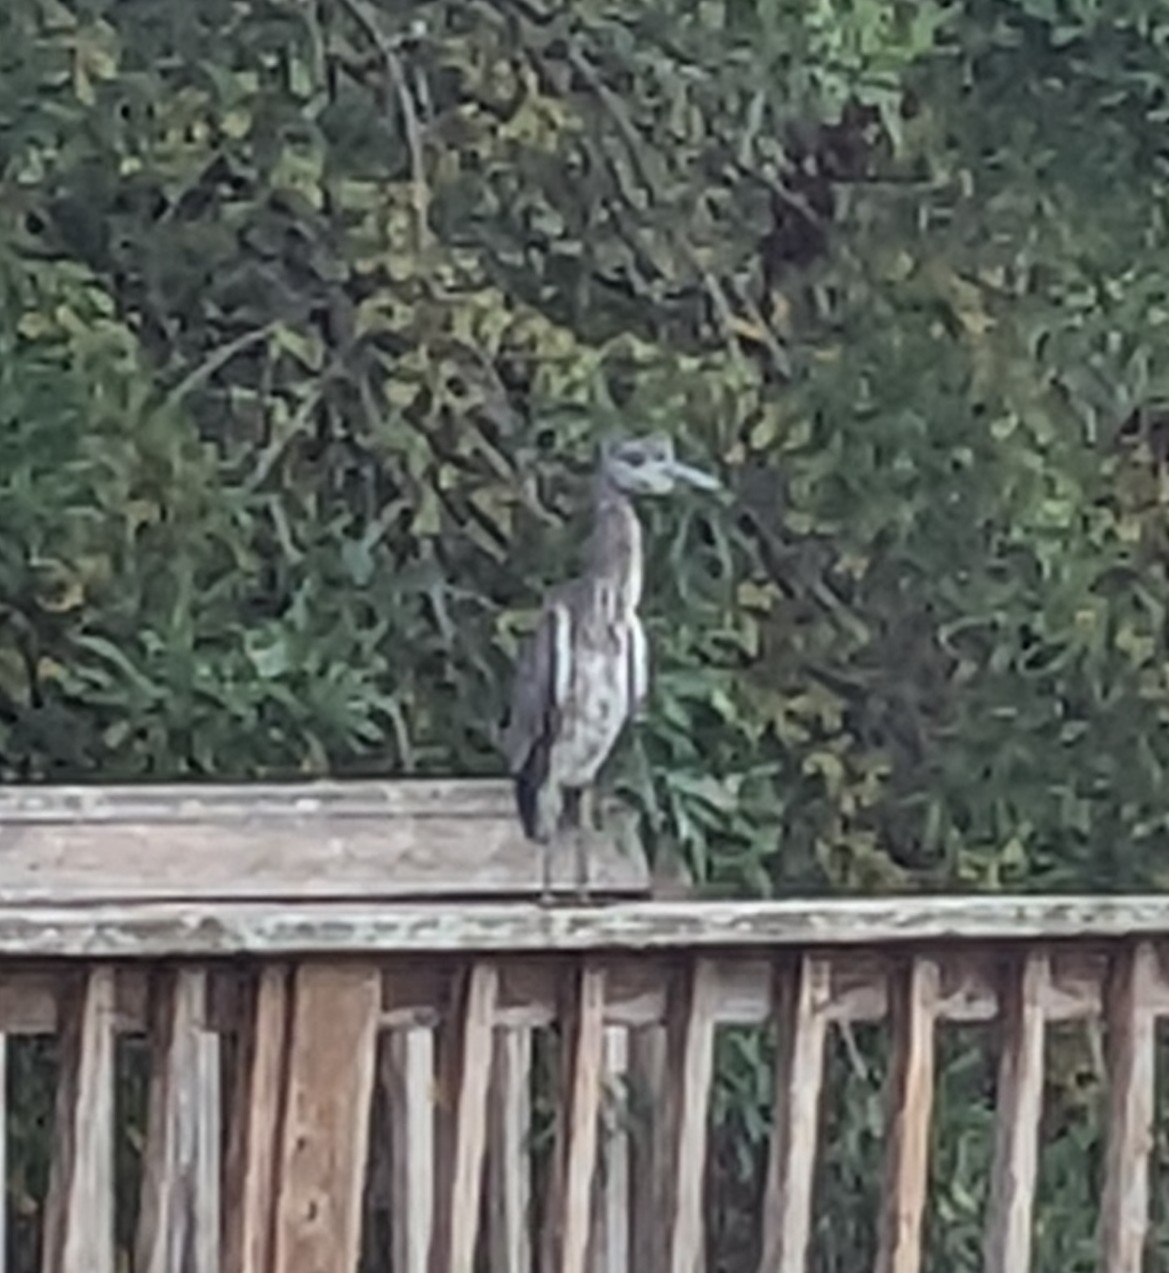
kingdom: Animalia
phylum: Chordata
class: Aves
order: Pelecaniformes
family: Ardeidae
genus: Nyctanassa
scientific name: Nyctanassa violacea
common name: Yellow-crowned night heron
